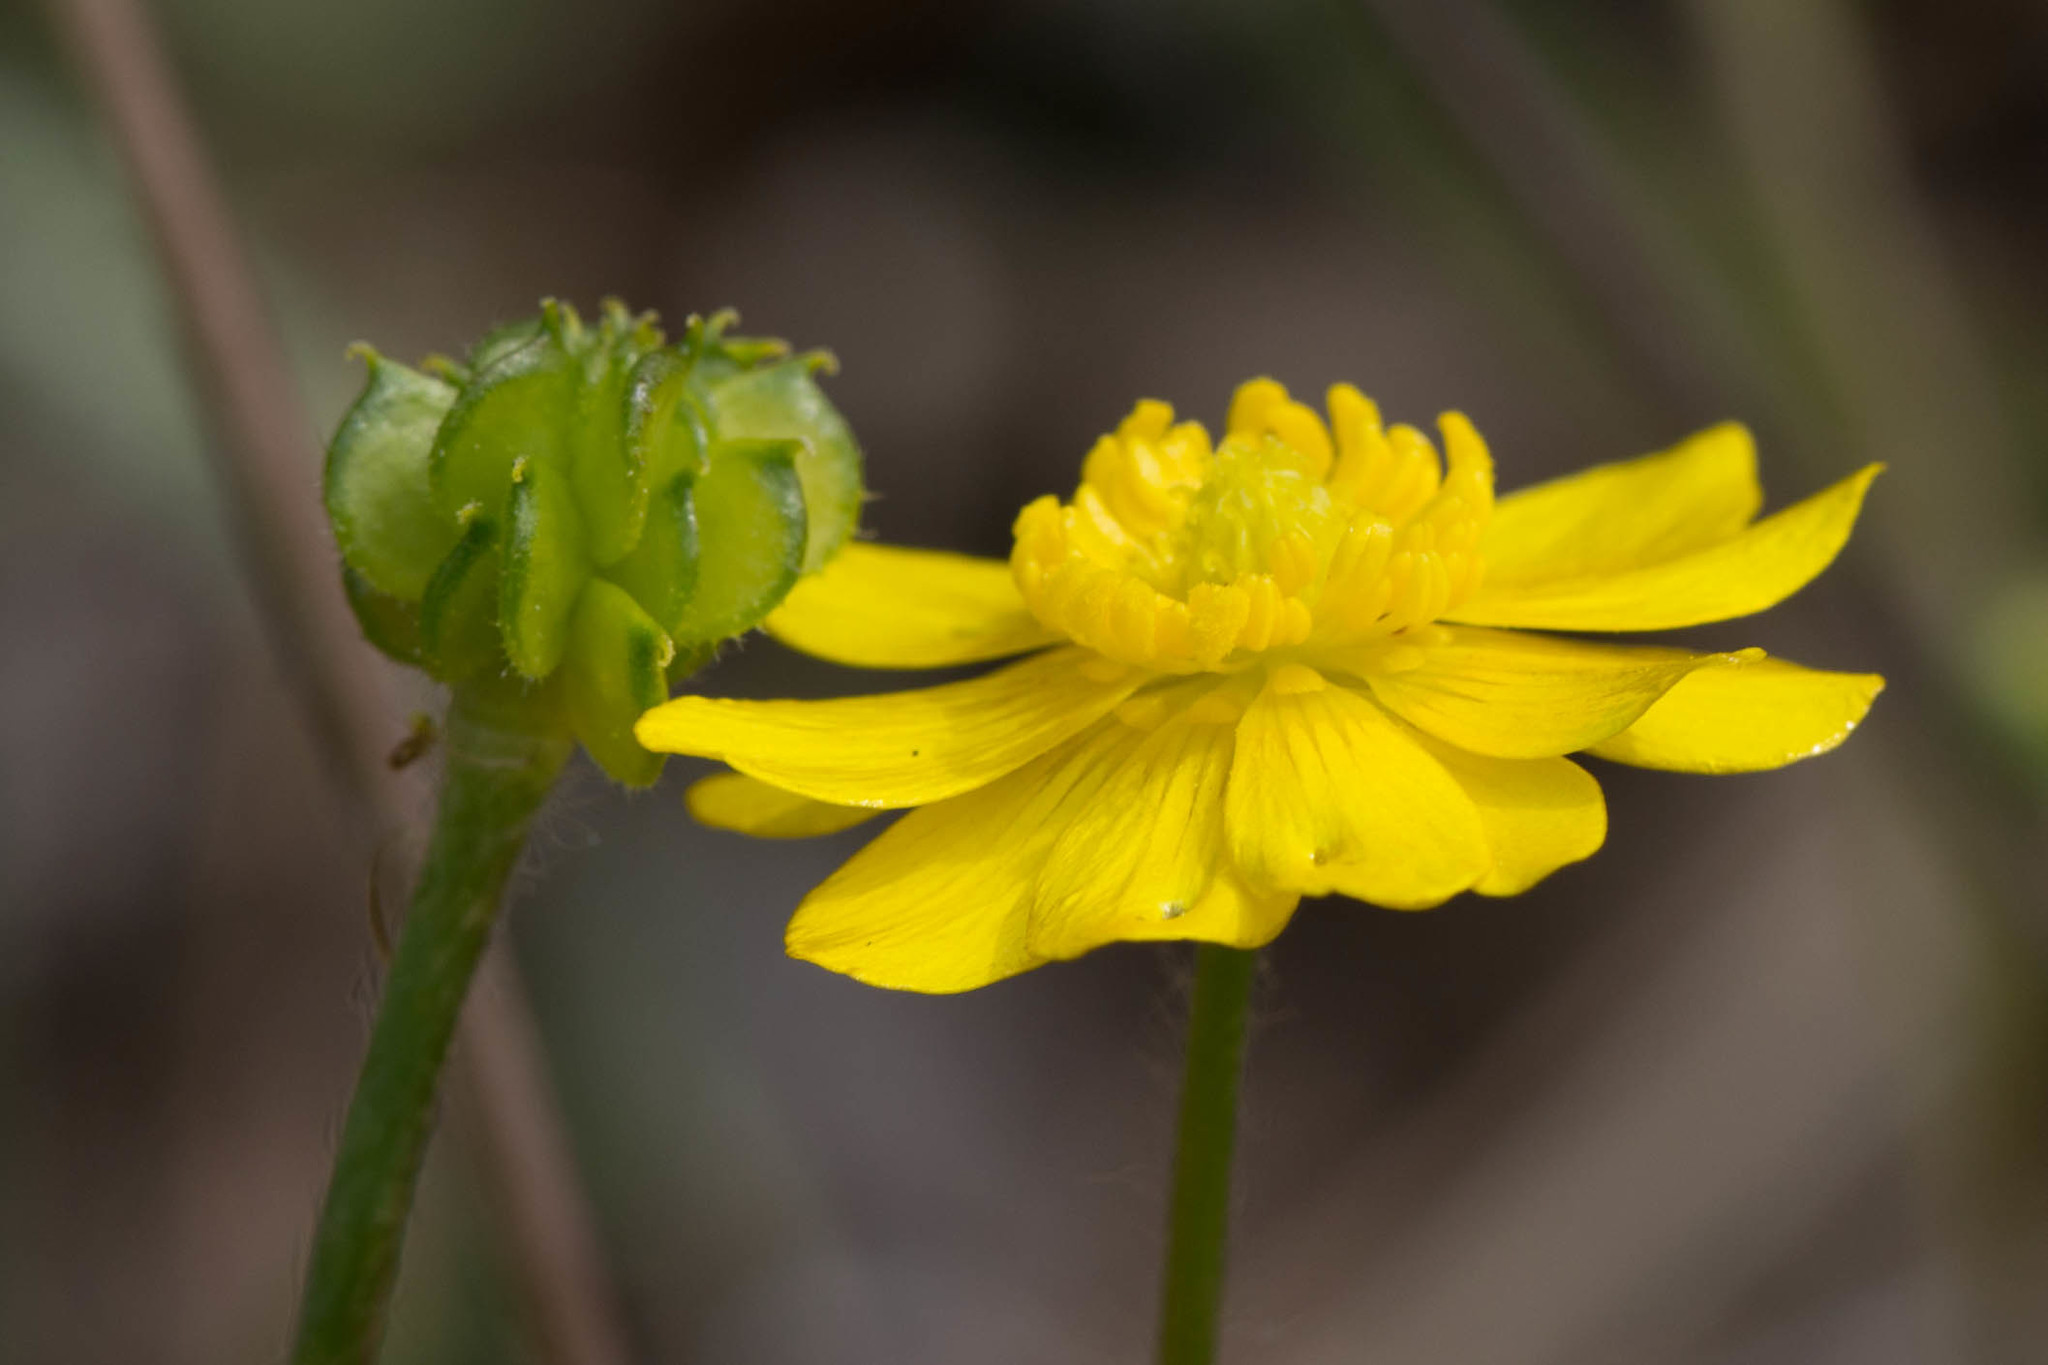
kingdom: Plantae
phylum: Tracheophyta
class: Magnoliopsida
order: Ranunculales
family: Ranunculaceae
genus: Ranunculus
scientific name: Ranunculus canus
